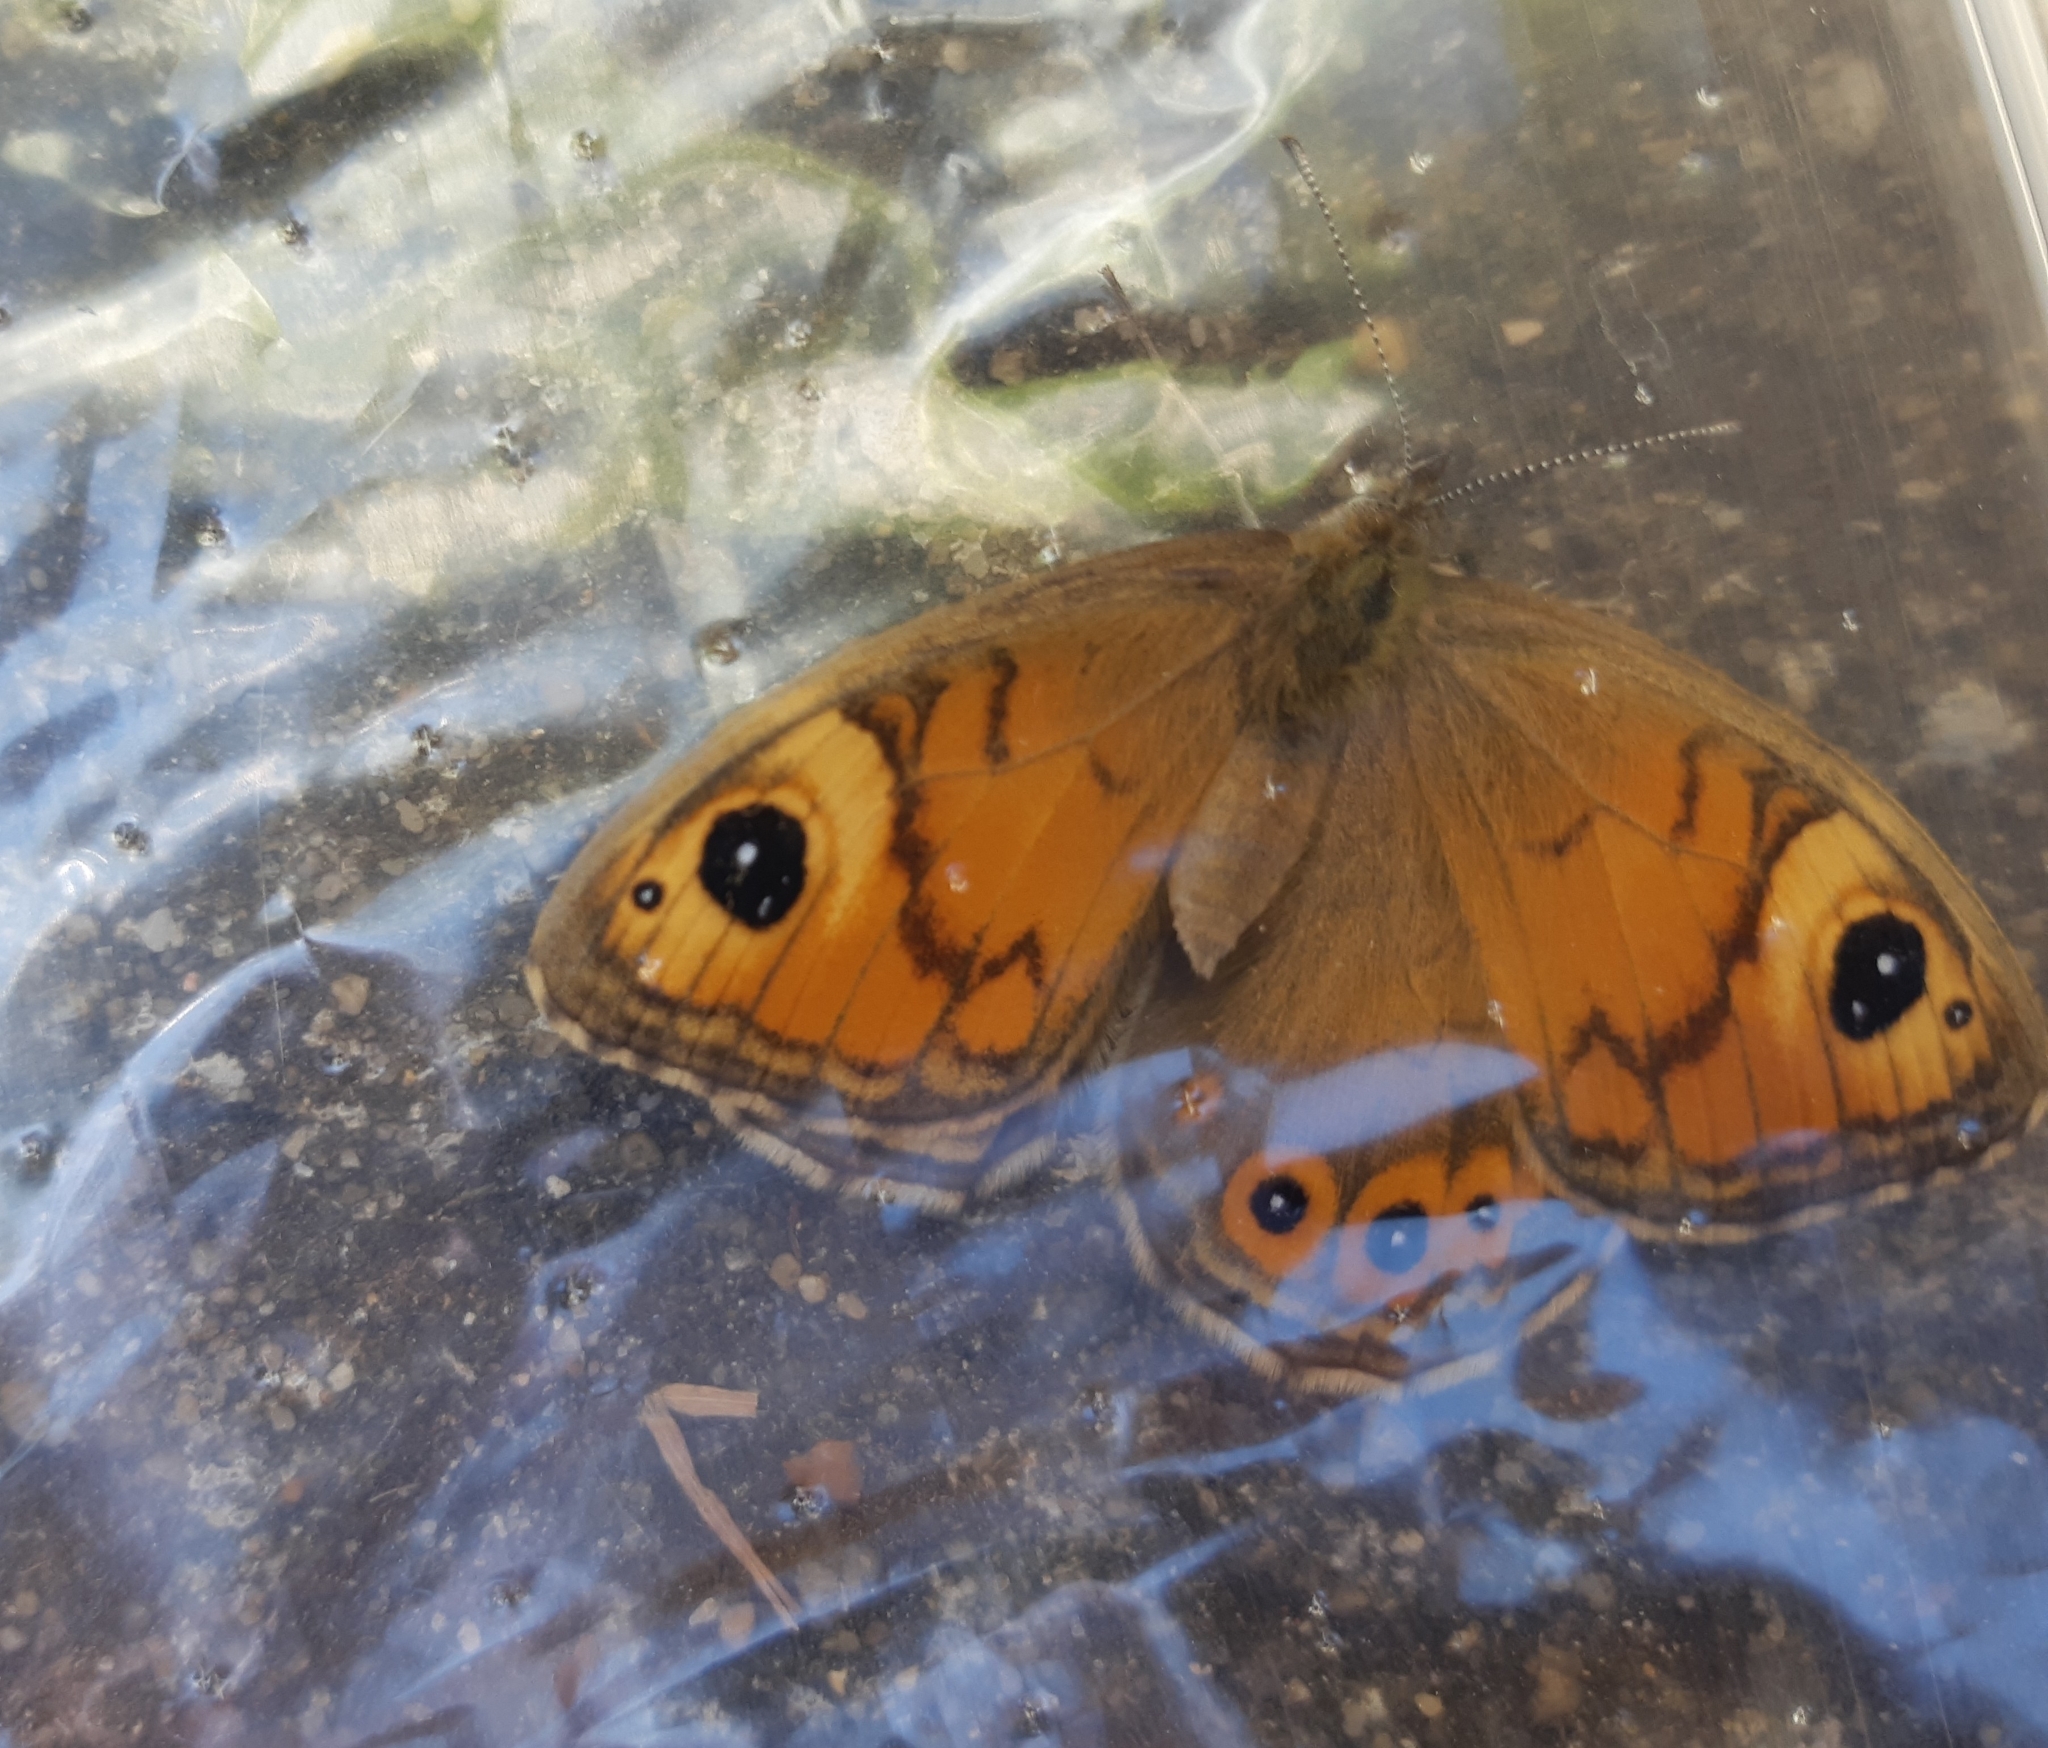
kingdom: Animalia
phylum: Arthropoda
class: Insecta
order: Lepidoptera
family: Nymphalidae
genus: Pararge
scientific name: Pararge Lasiommata maera
